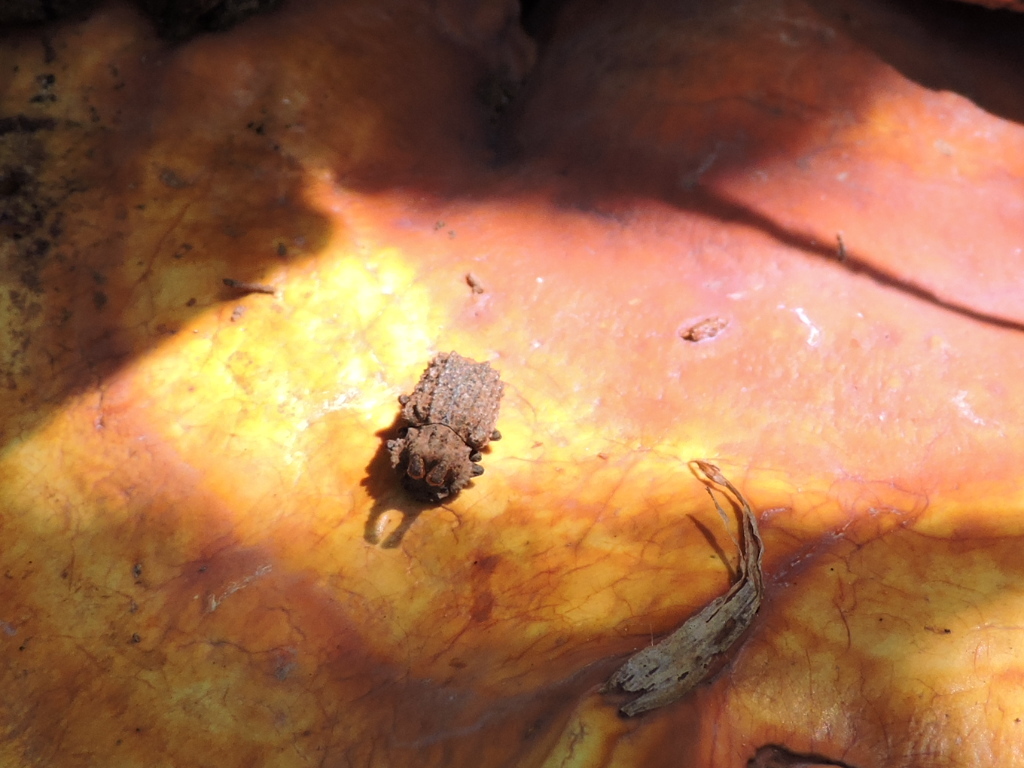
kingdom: Animalia
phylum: Arthropoda
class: Insecta
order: Coleoptera
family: Tenebrionidae
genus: Gnatocerus
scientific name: Gnatocerus cornutus
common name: Broad-horned flour beetle
